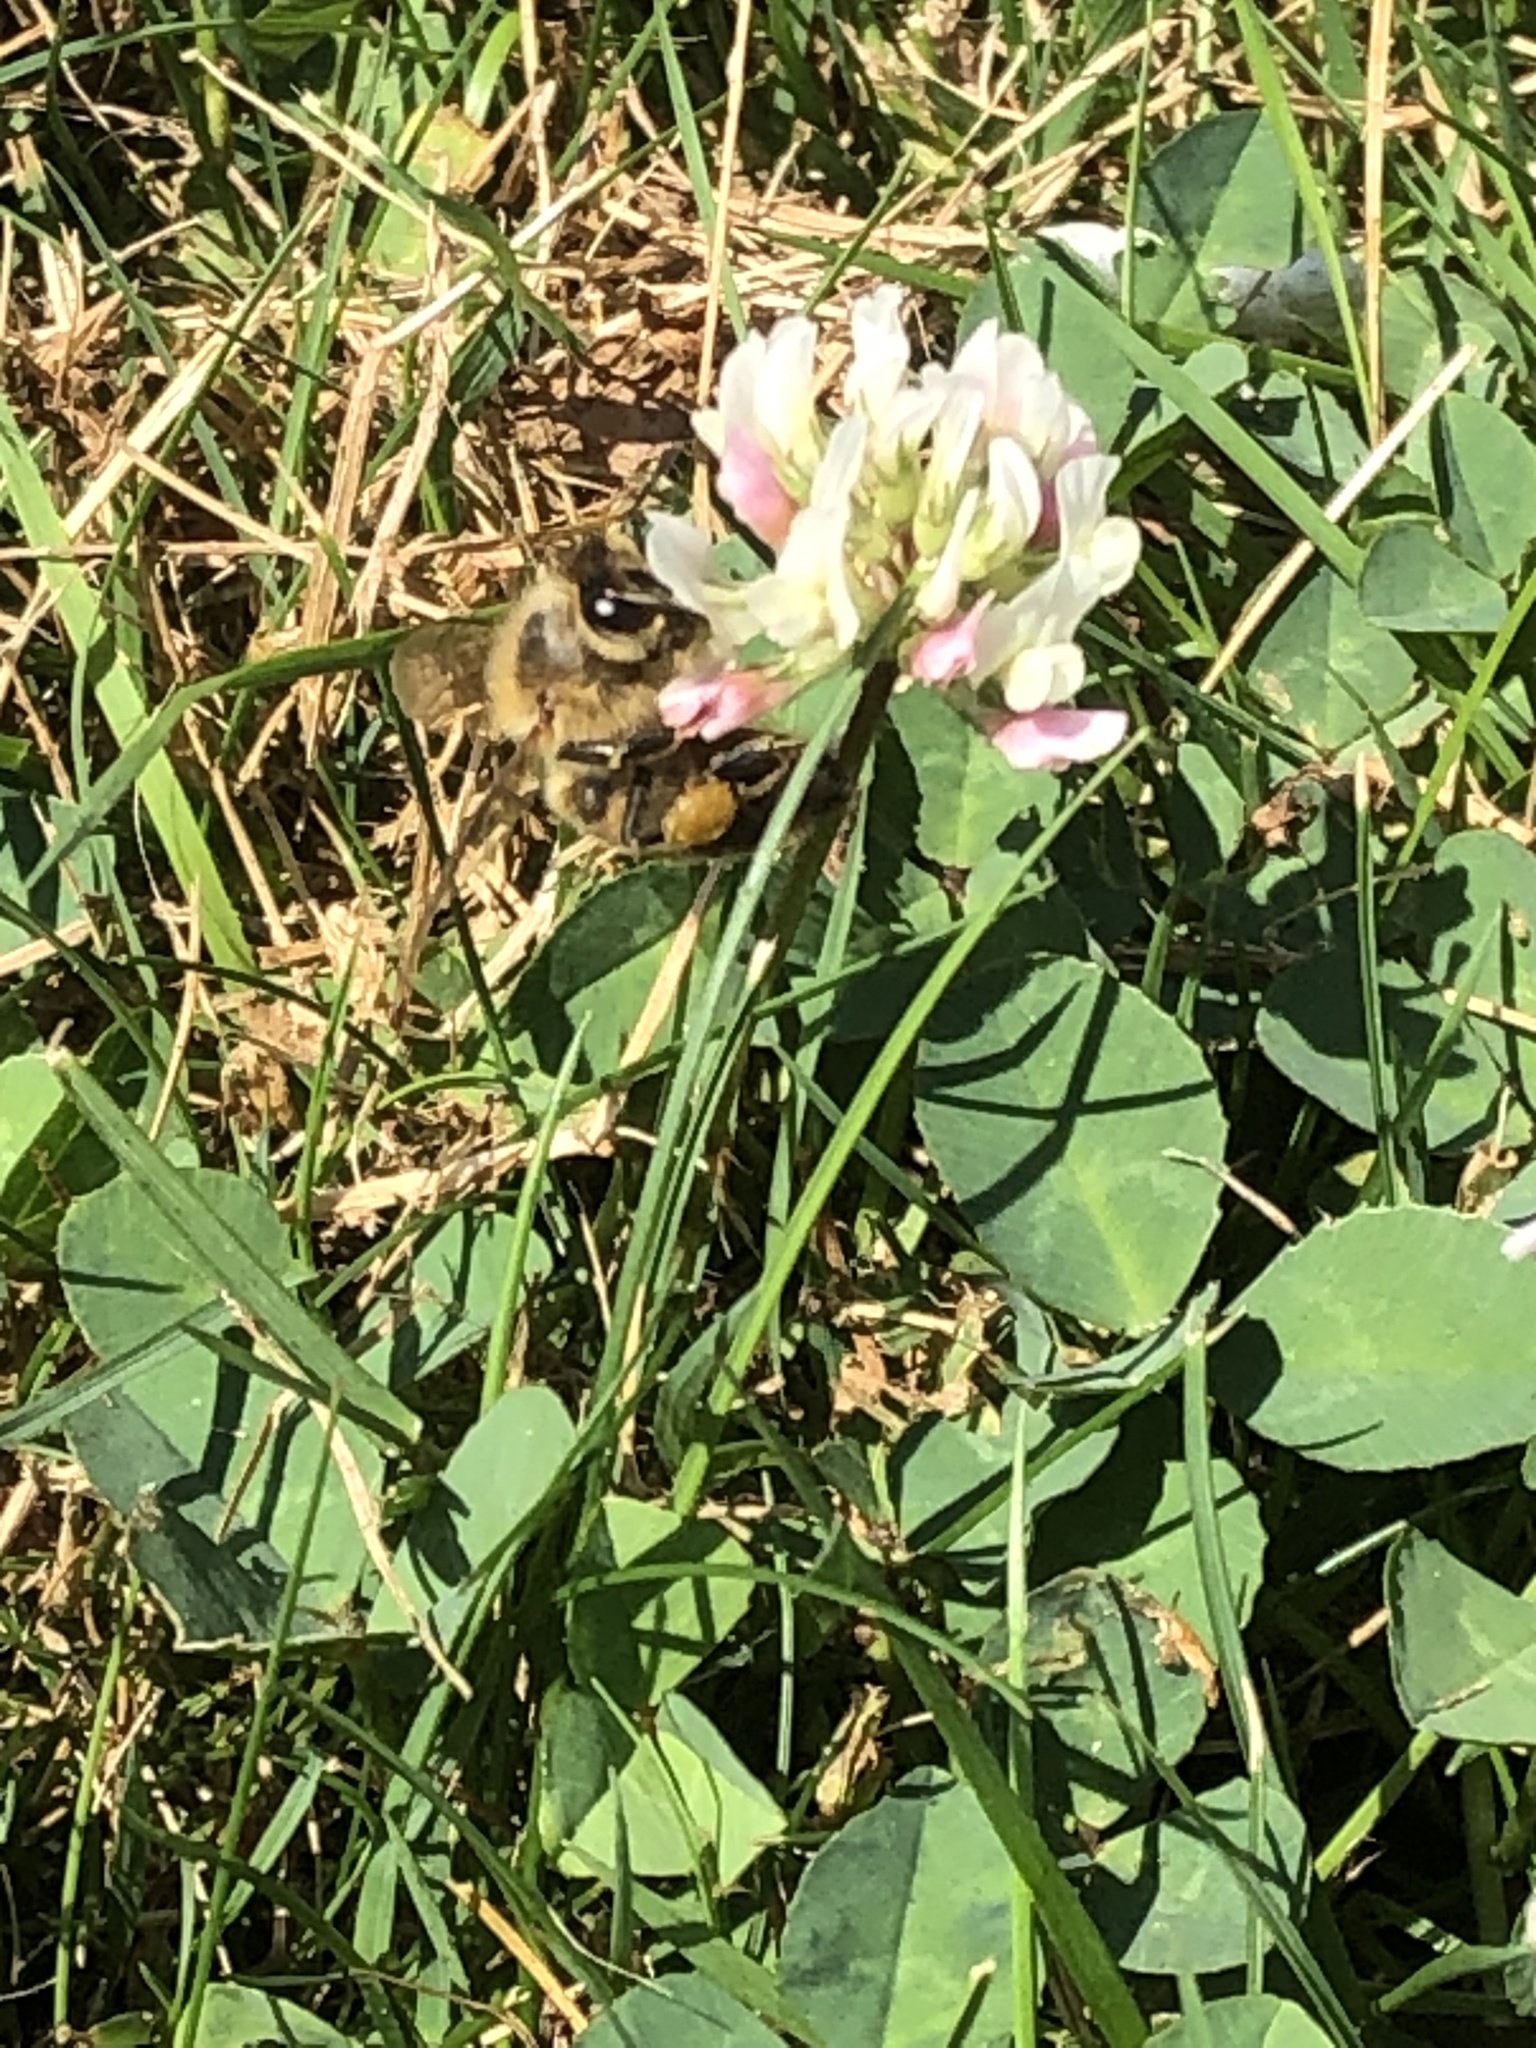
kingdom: Animalia
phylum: Arthropoda
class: Insecta
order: Hymenoptera
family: Apidae
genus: Apis
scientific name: Apis mellifera
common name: Honey bee
